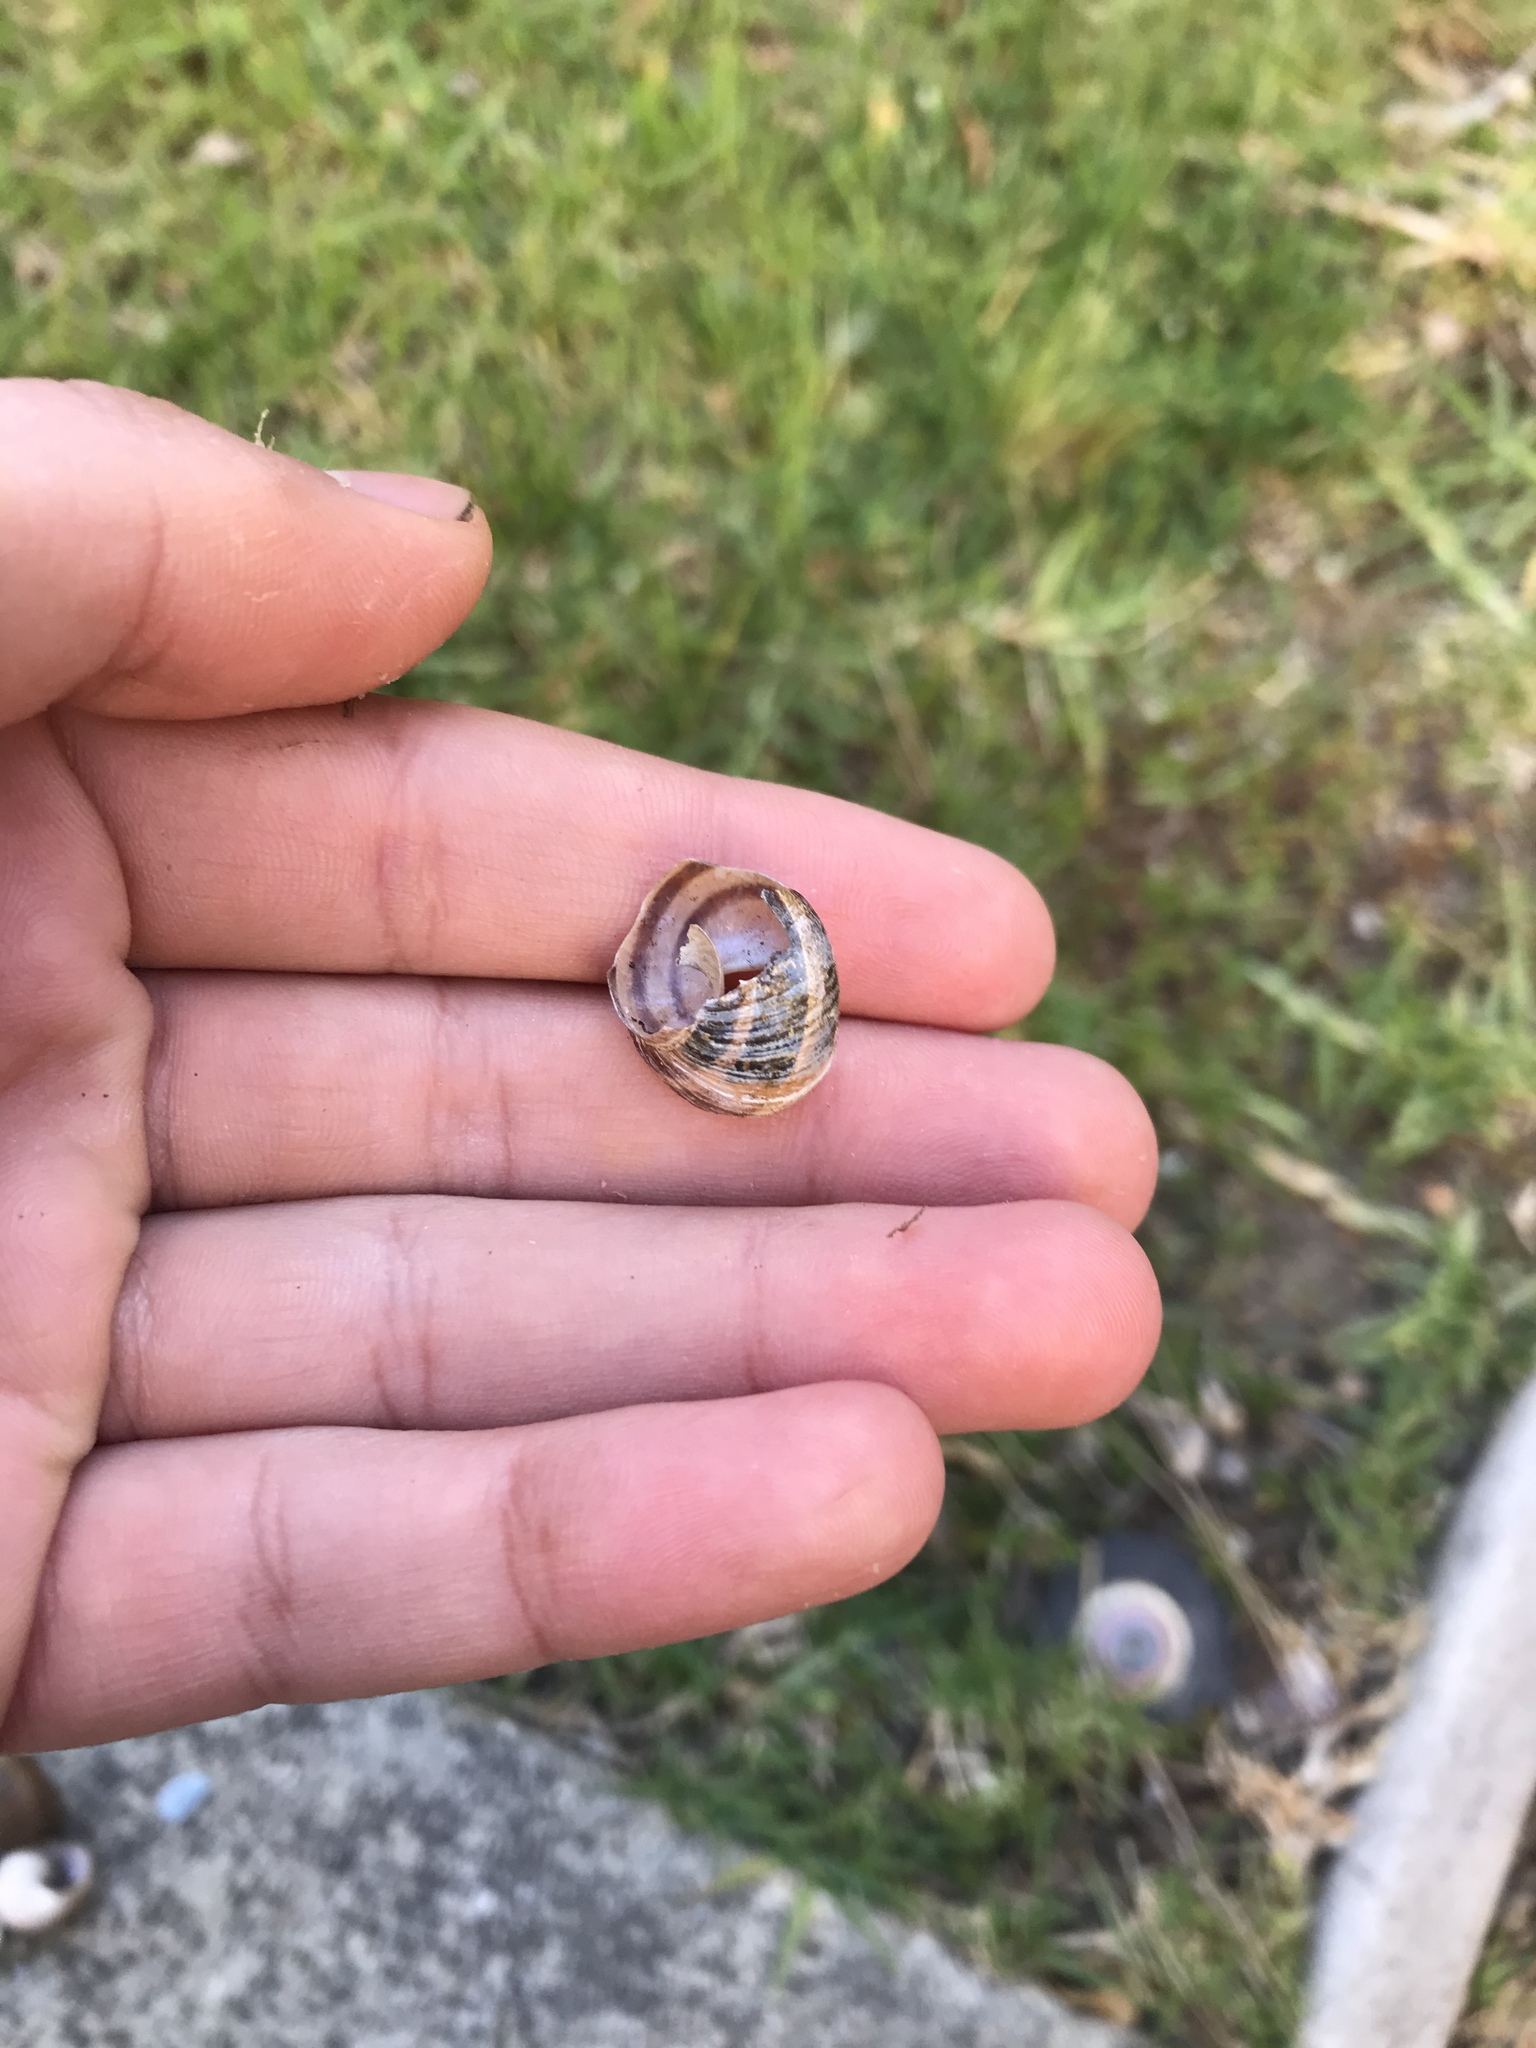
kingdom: Animalia
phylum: Mollusca
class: Gastropoda
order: Stylommatophora
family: Helicidae
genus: Cornu
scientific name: Cornu aspersum
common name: Brown garden snail
